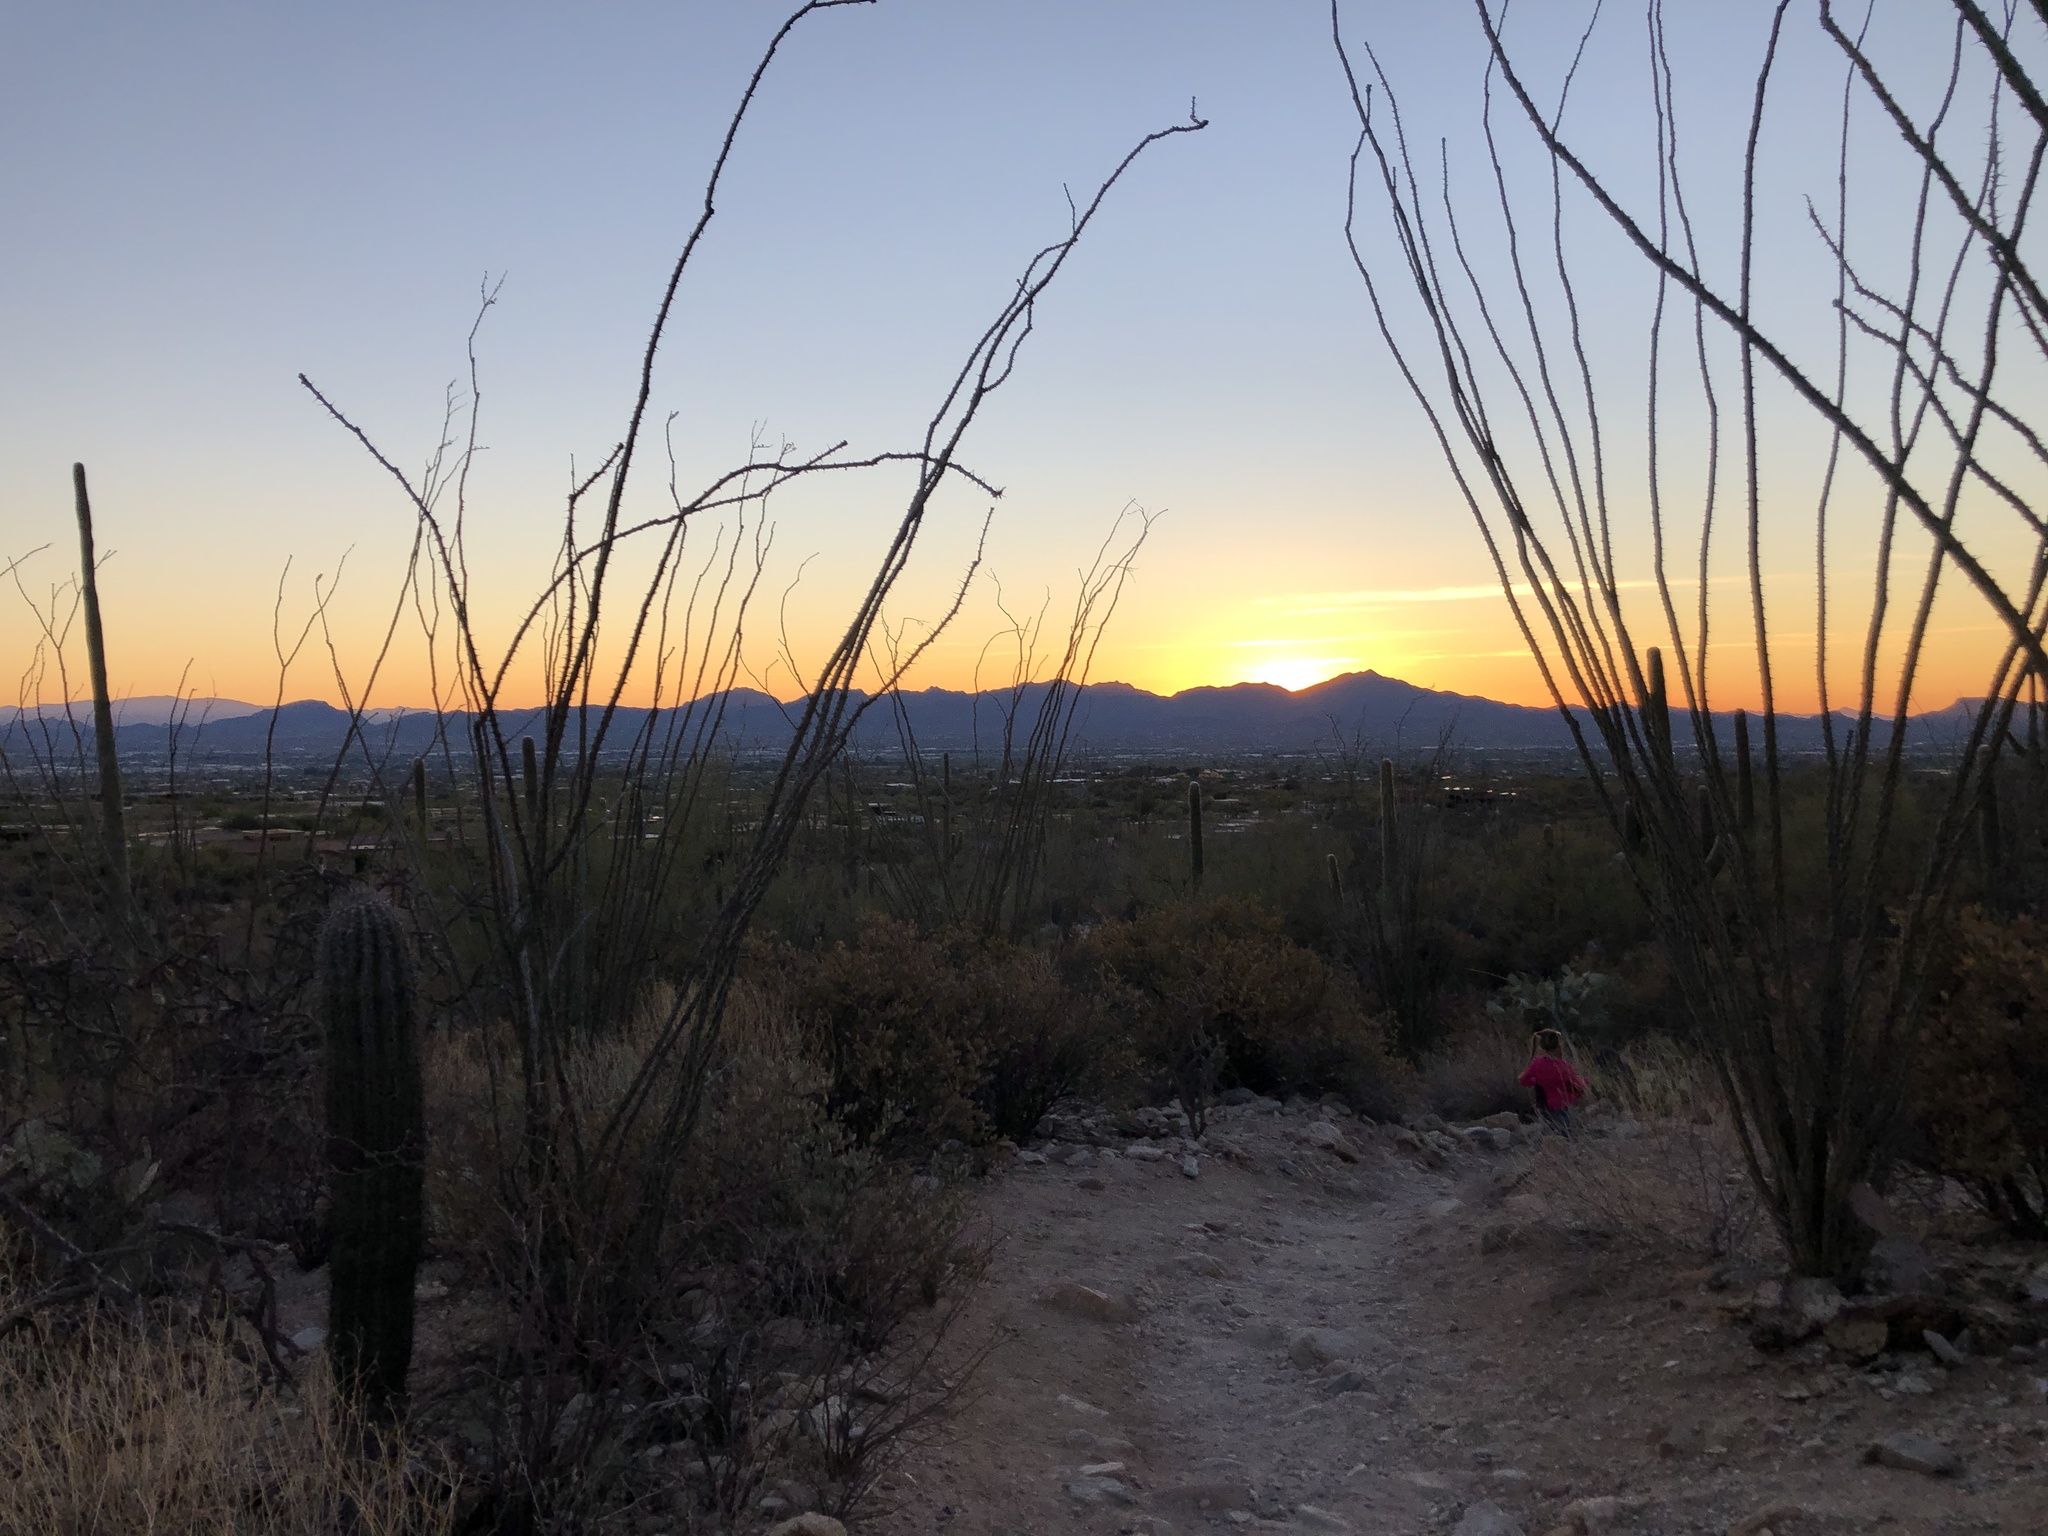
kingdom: Plantae
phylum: Tracheophyta
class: Magnoliopsida
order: Ericales
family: Fouquieriaceae
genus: Fouquieria
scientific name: Fouquieria splendens
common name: Vine-cactus
